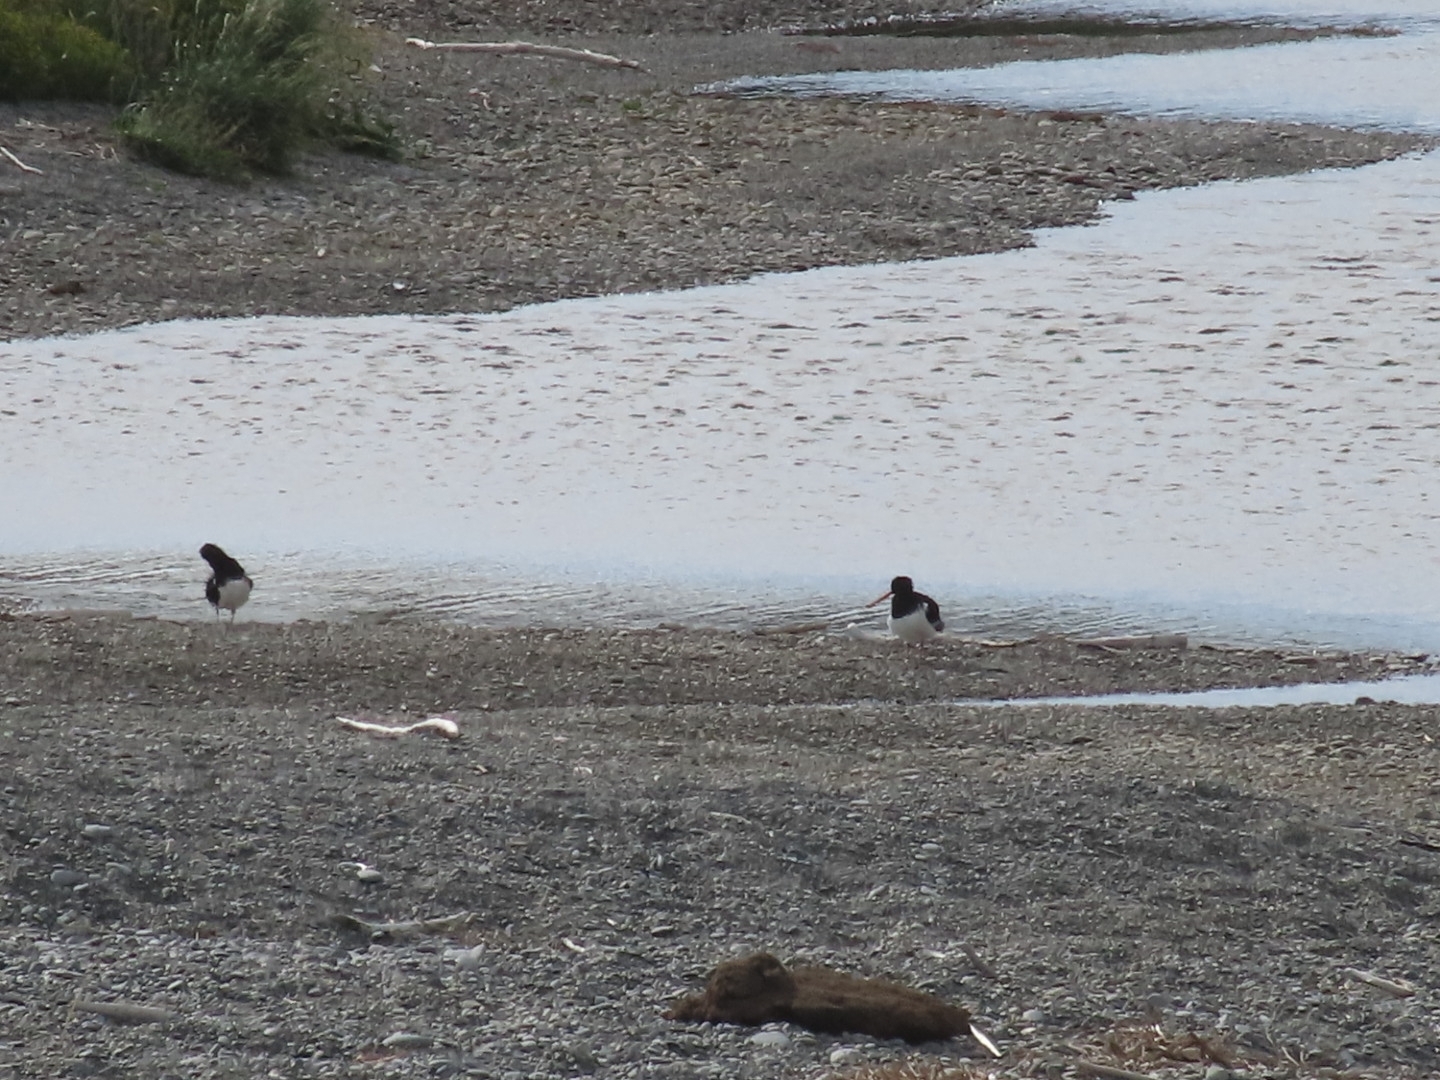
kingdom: Animalia
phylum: Chordata
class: Aves
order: Charadriiformes
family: Haematopodidae
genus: Haematopus
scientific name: Haematopus finschi
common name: South island oystercatcher
